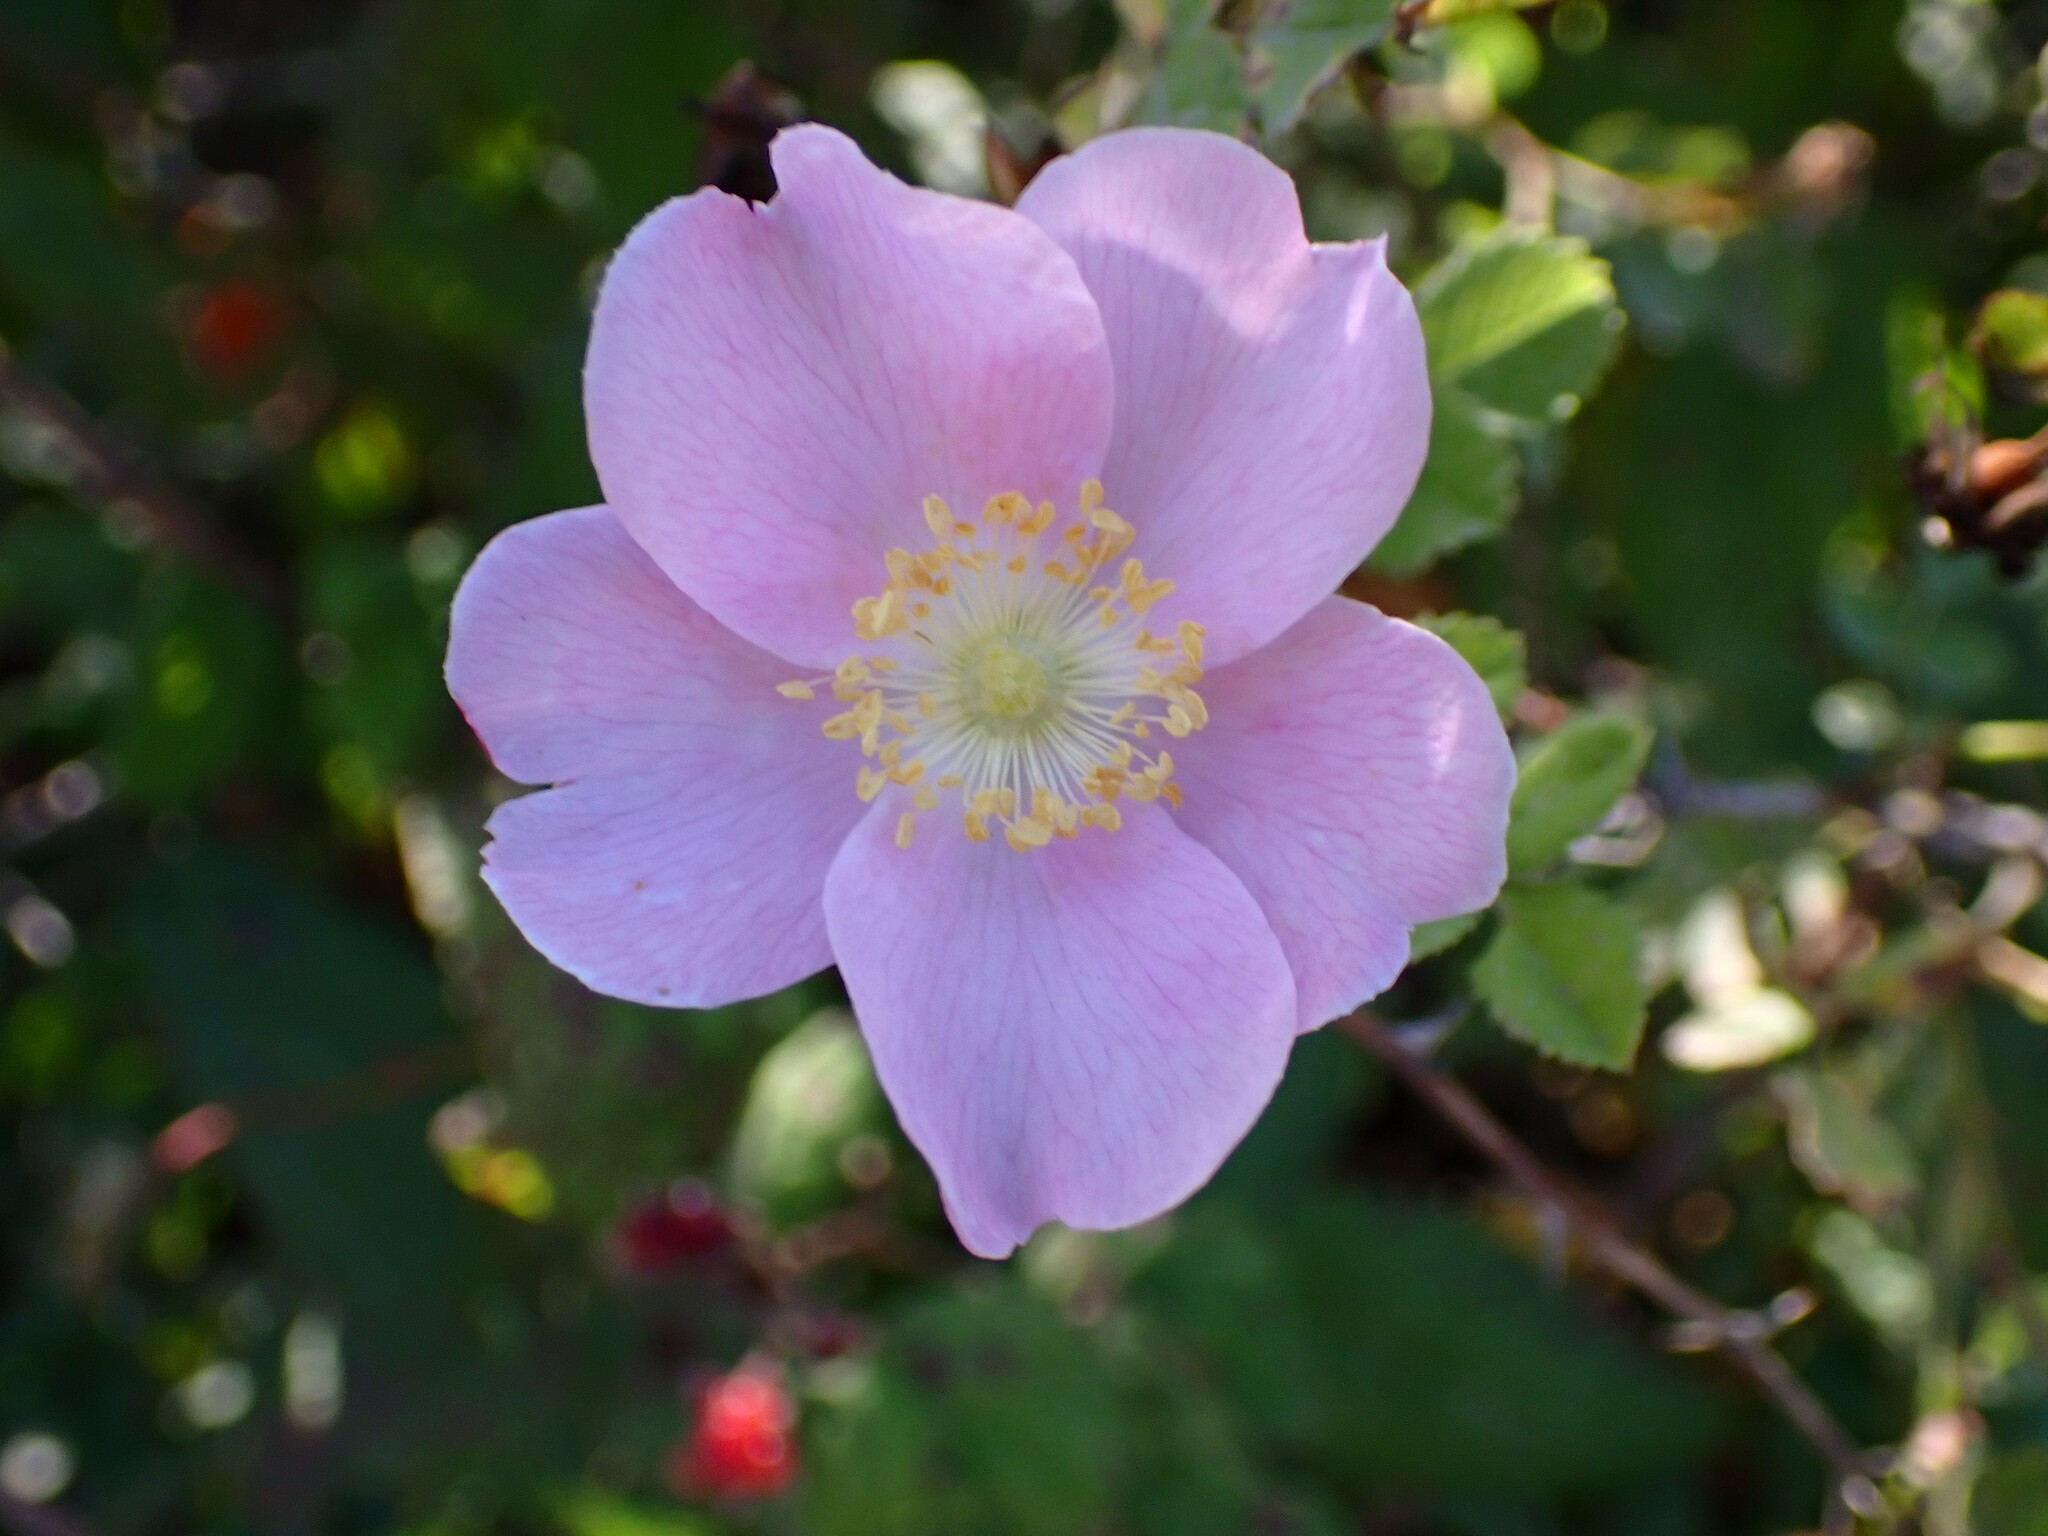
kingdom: Plantae
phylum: Tracheophyta
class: Magnoliopsida
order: Rosales
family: Rosaceae
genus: Rosa
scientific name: Rosa californica
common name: California rose
